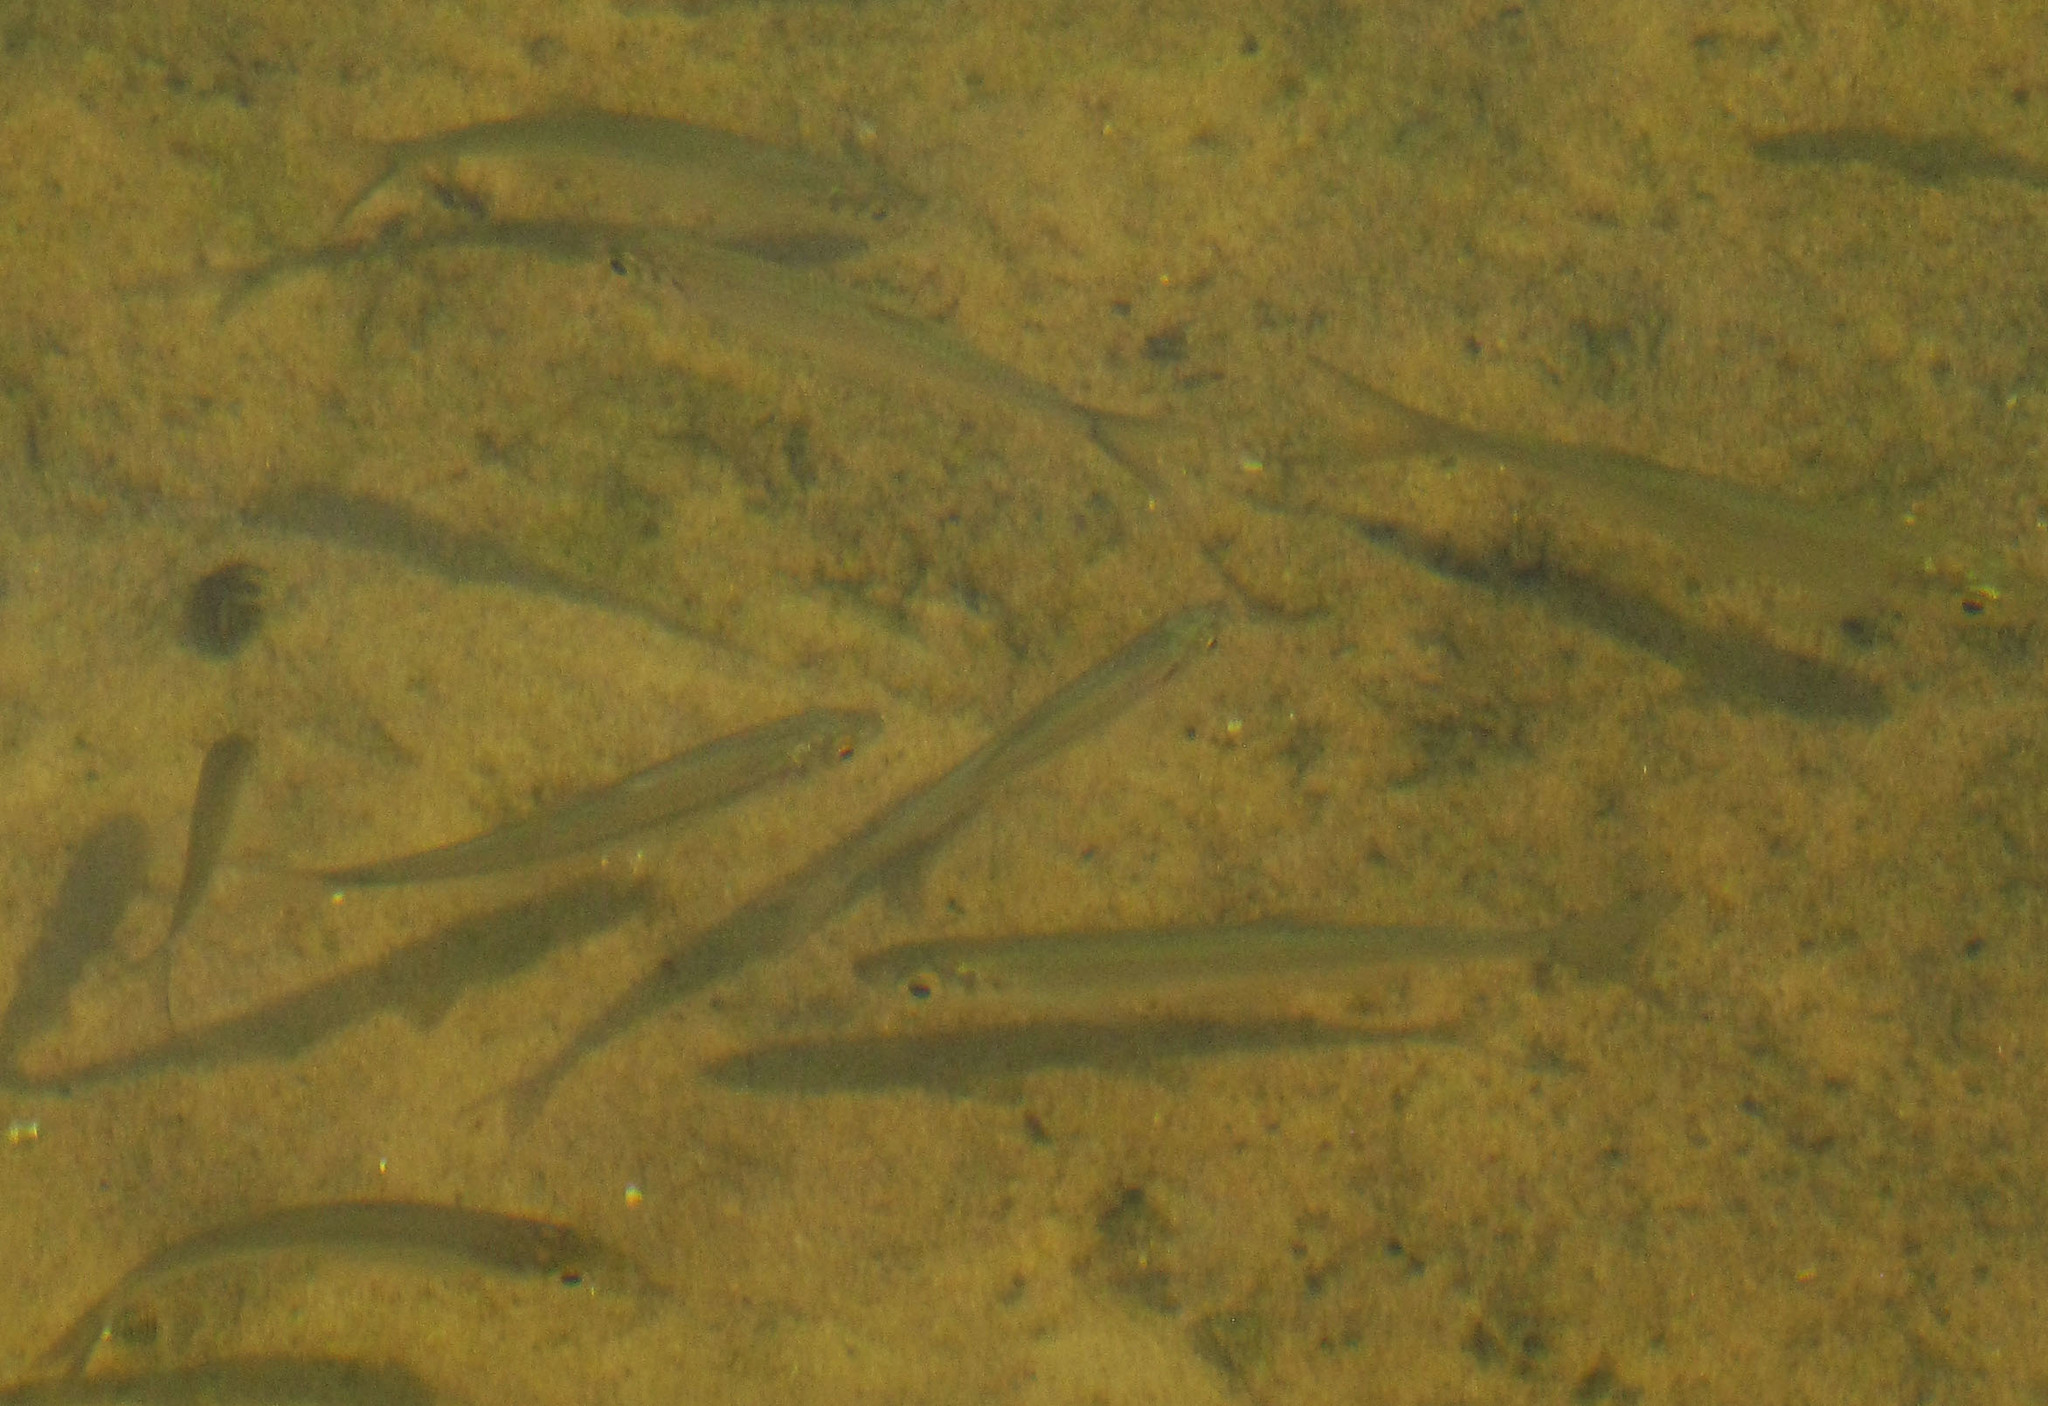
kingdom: Animalia
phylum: Chordata
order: Cypriniformes
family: Cyprinidae
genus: Alburnus
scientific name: Alburnus alburnus
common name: Bleak
